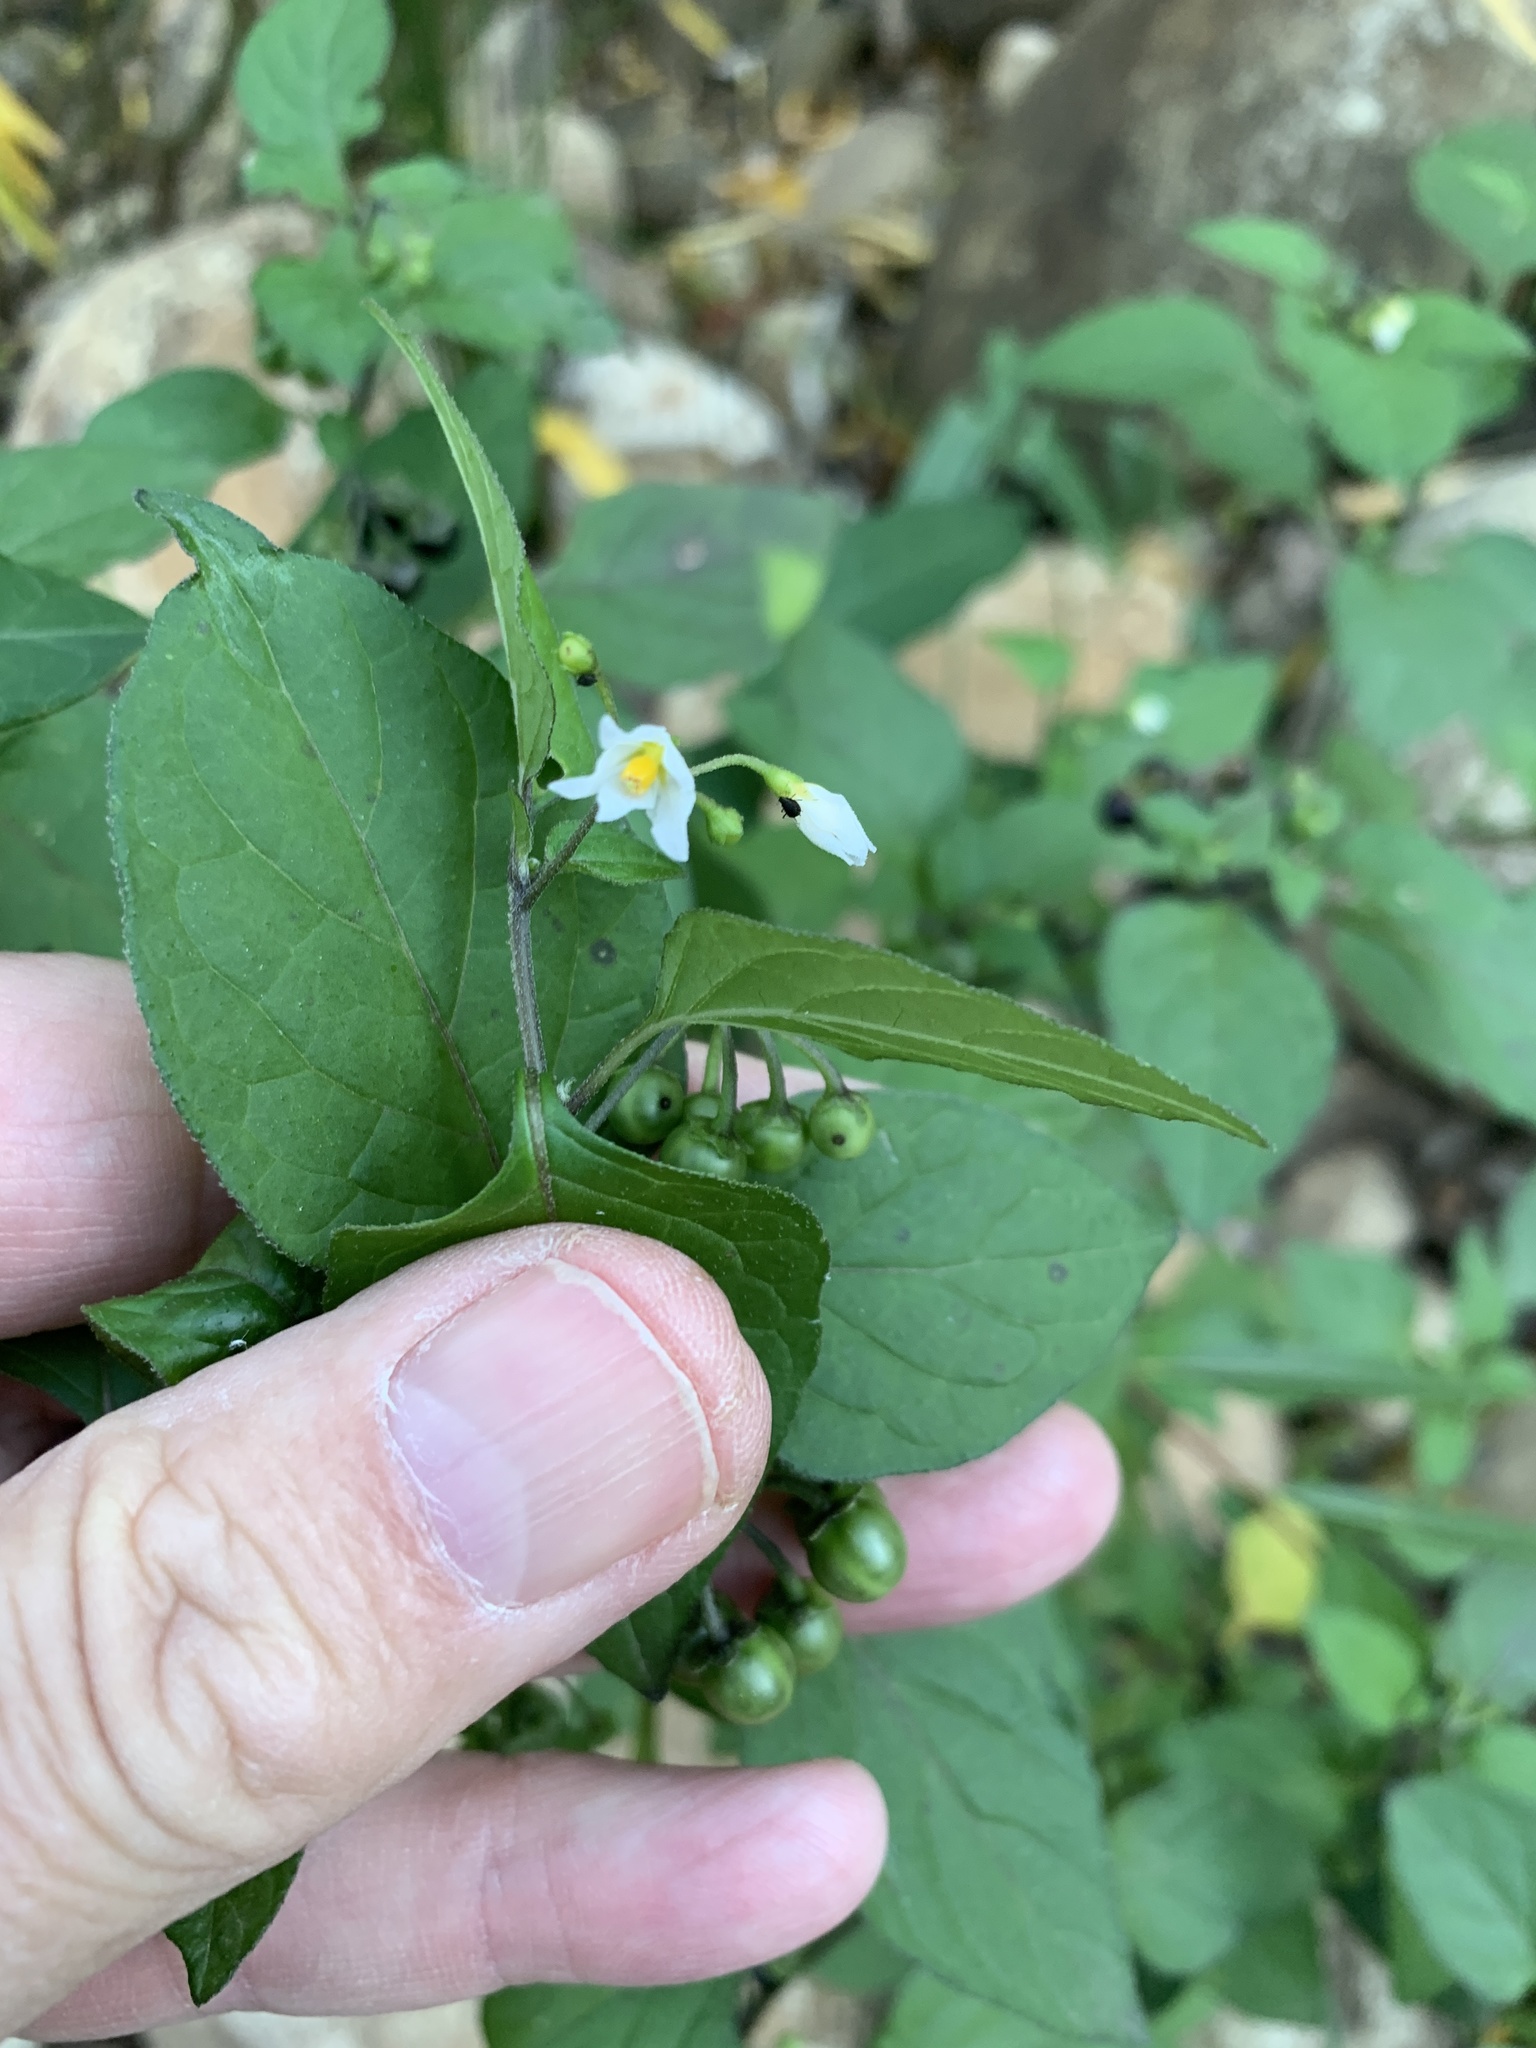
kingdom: Plantae
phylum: Tracheophyta
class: Magnoliopsida
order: Solanales
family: Solanaceae
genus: Solanum
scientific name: Solanum nigrum
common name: Black nightshade
